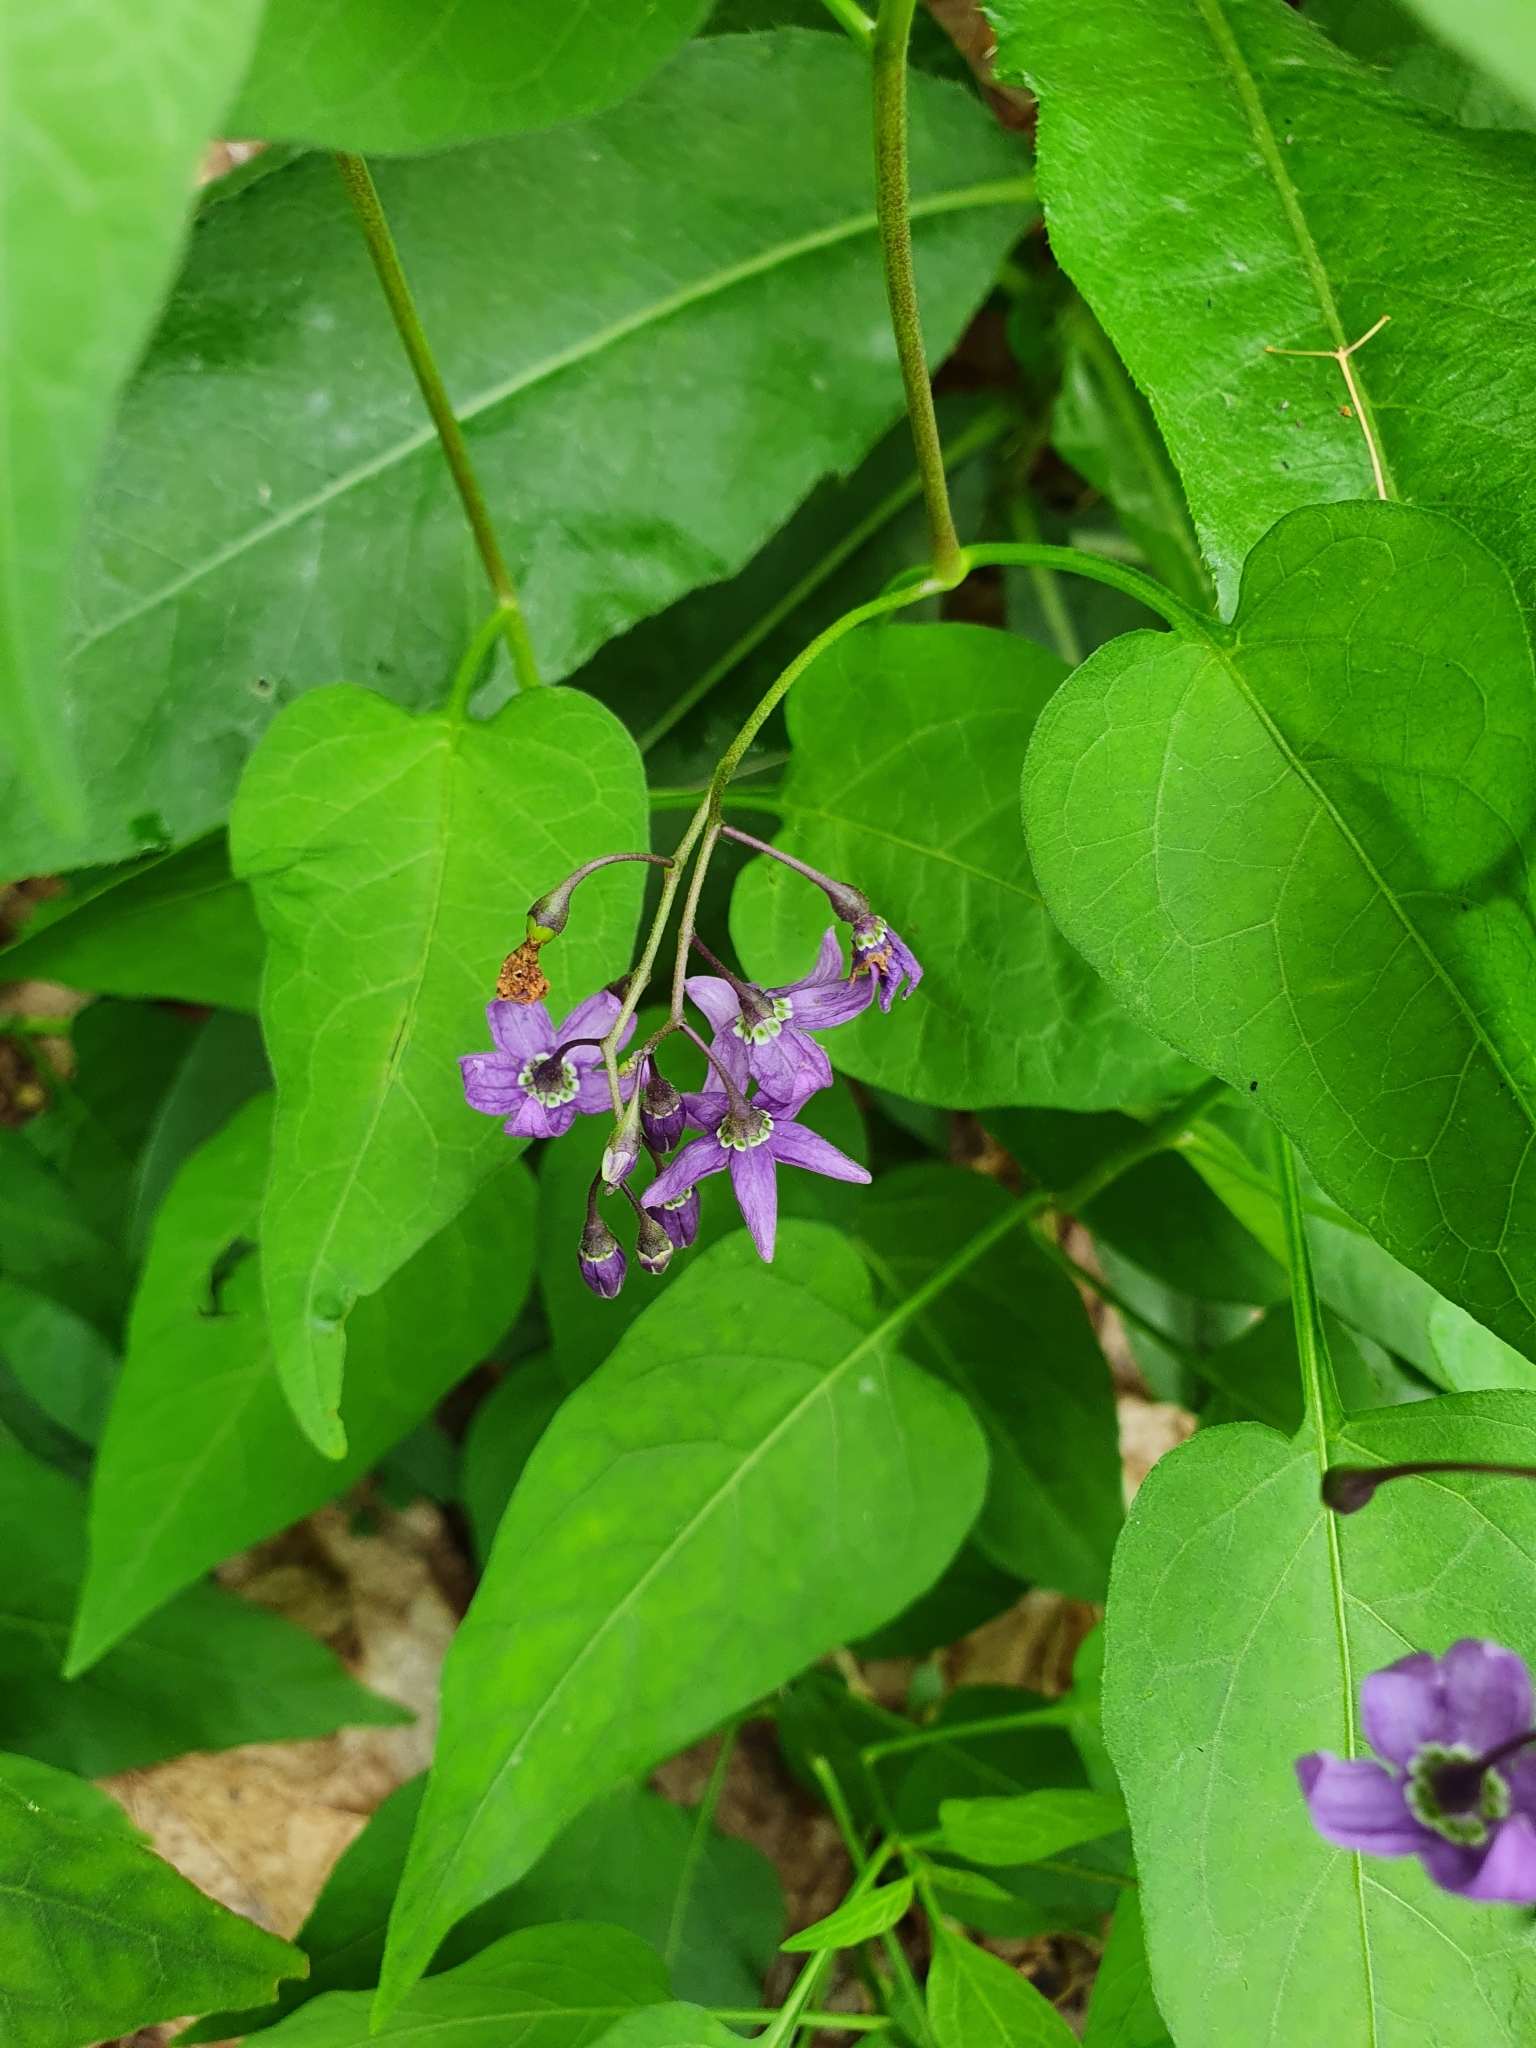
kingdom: Plantae
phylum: Tracheophyta
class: Magnoliopsida
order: Solanales
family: Solanaceae
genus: Solanum
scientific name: Solanum dulcamara
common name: Climbing nightshade
